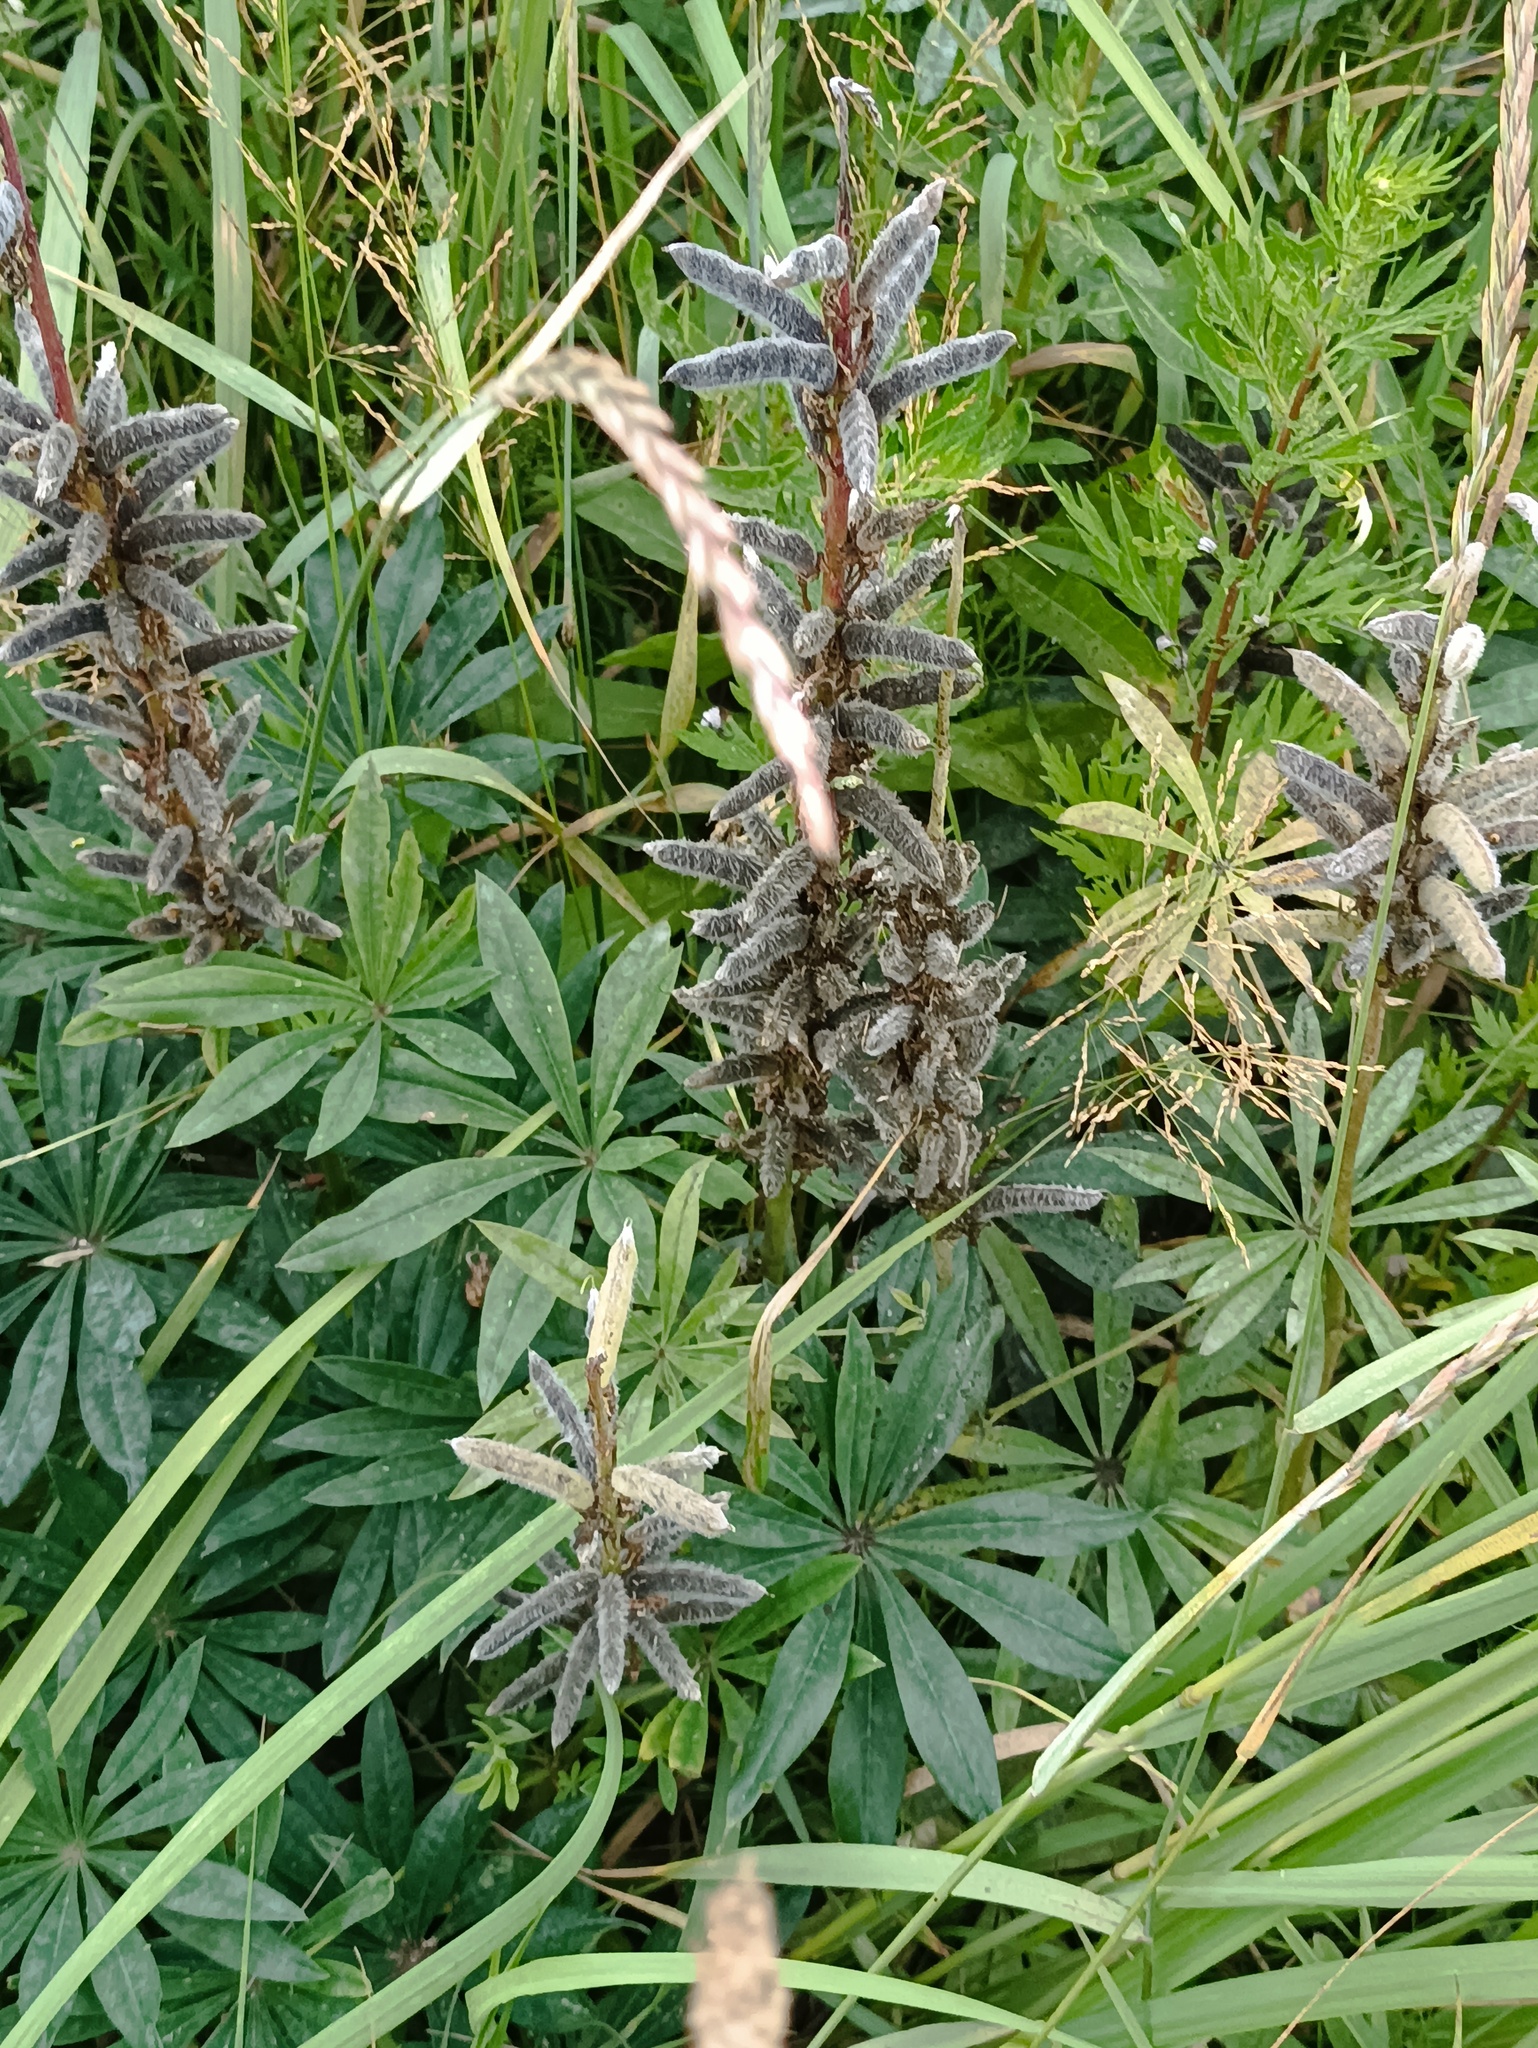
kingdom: Plantae
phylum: Tracheophyta
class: Magnoliopsida
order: Fabales
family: Fabaceae
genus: Lupinus
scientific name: Lupinus polyphyllus
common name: Garden lupin
